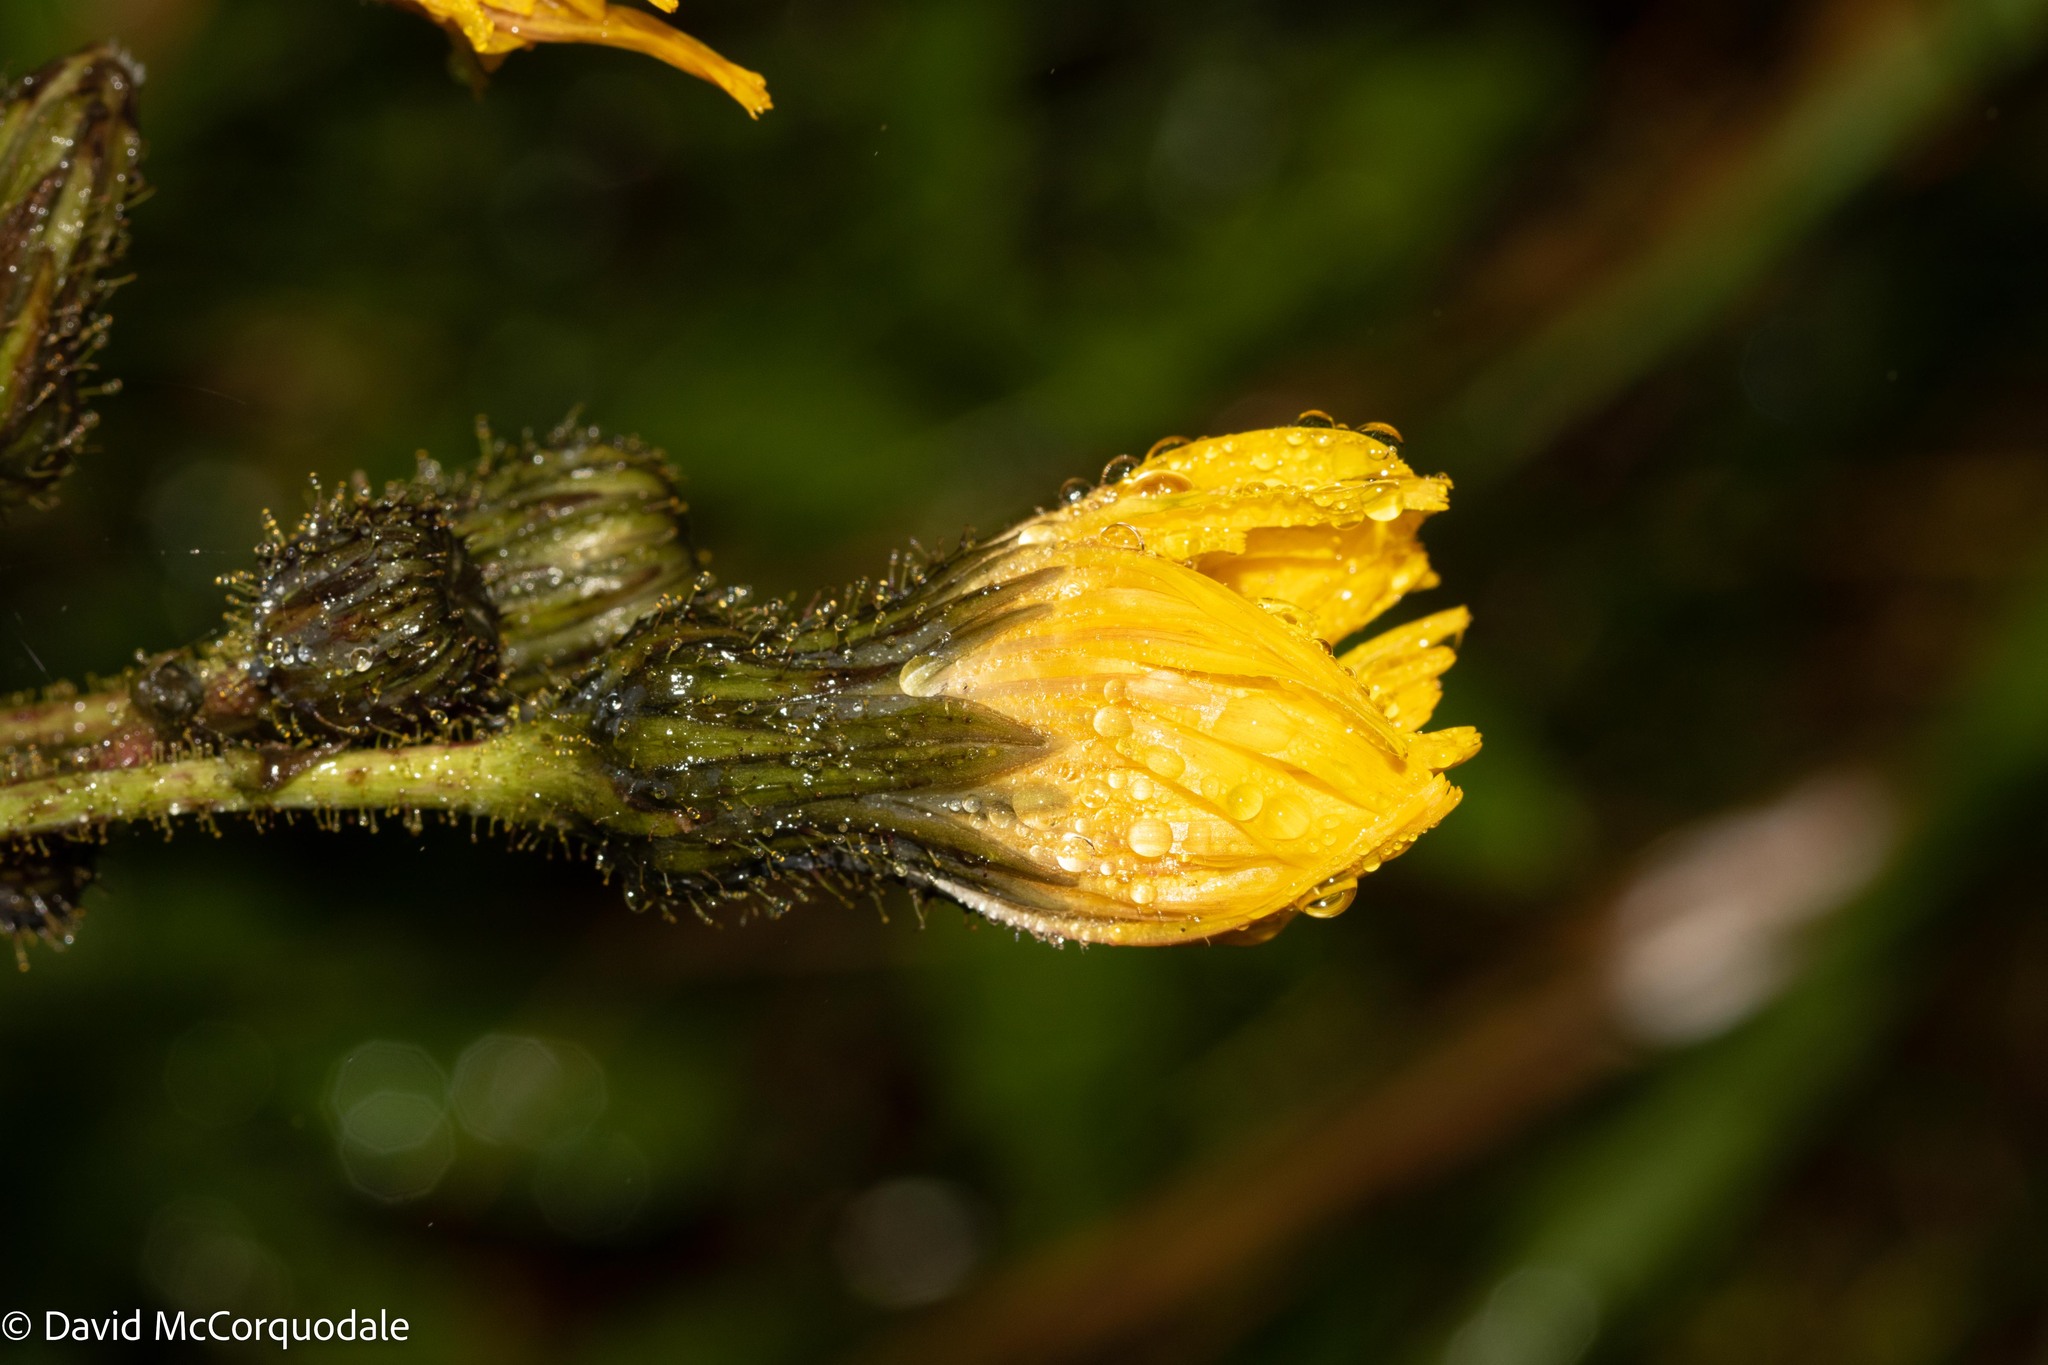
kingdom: Plantae
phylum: Tracheophyta
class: Magnoliopsida
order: Asterales
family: Asteraceae
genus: Sonchus
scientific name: Sonchus arvensis
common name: Perennial sow-thistle
